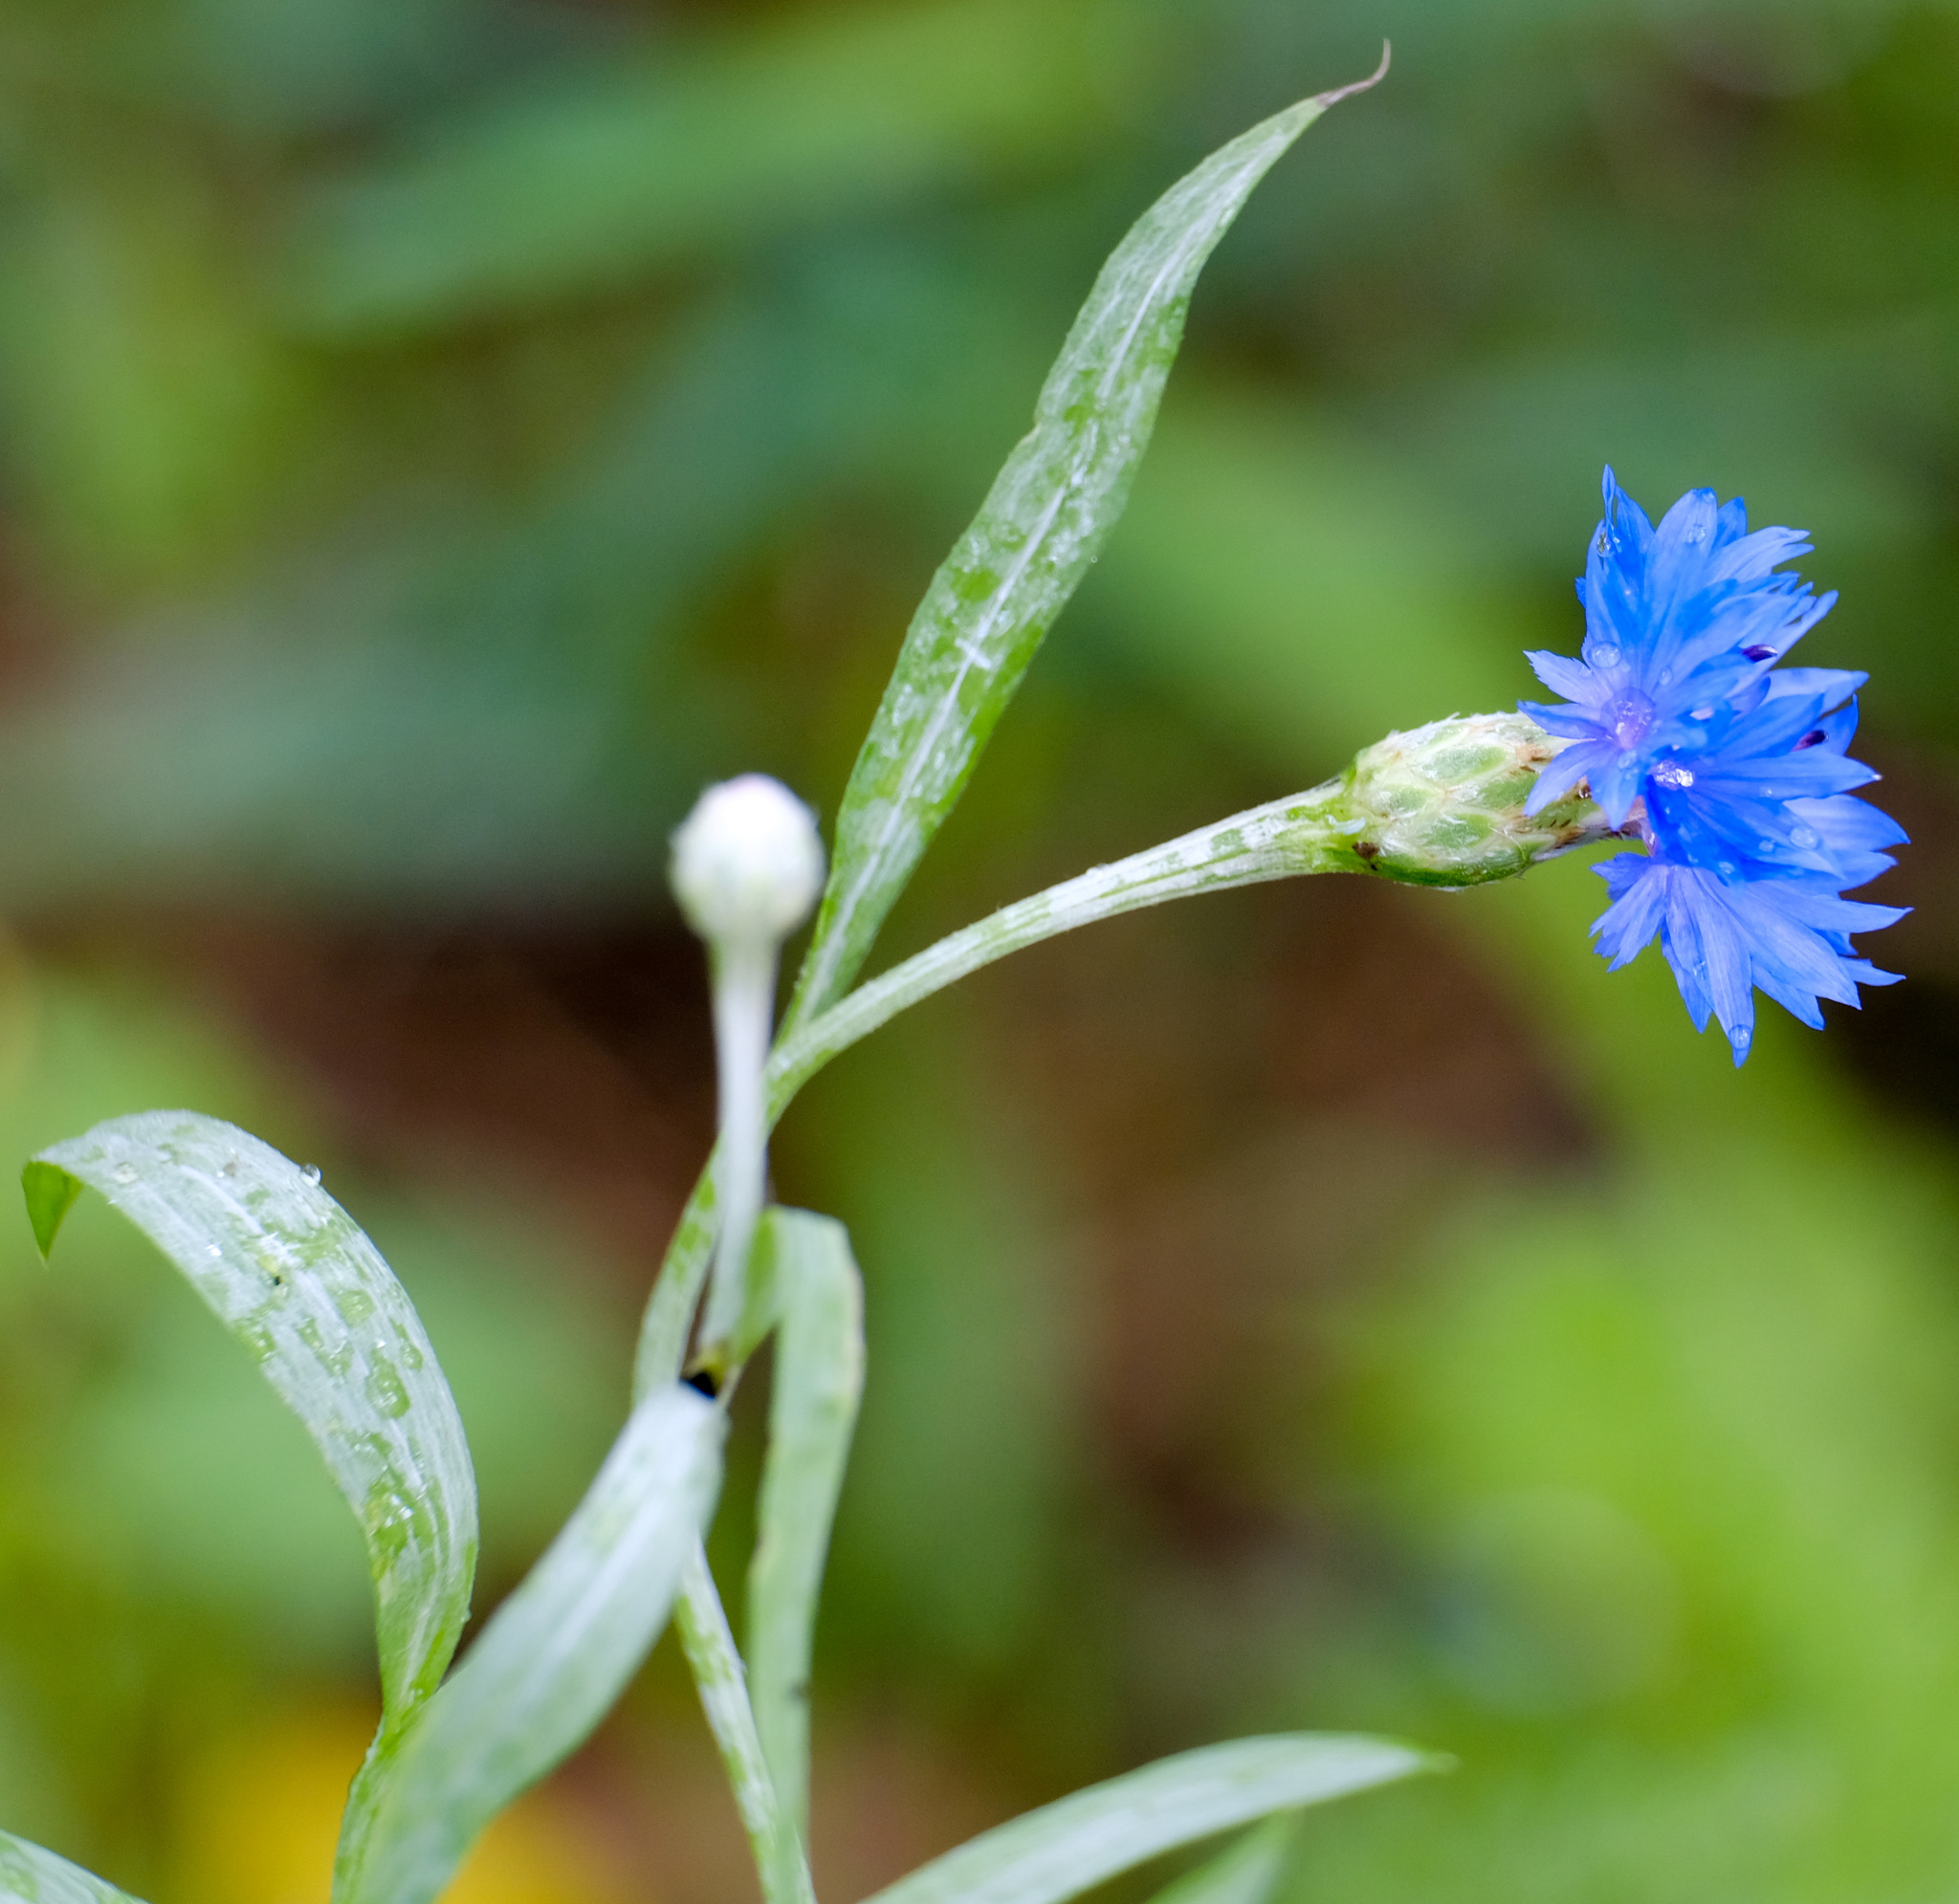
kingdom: Plantae
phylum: Tracheophyta
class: Magnoliopsida
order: Asterales
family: Asteraceae
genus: Centaurea
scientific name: Centaurea cyanus
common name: Cornflower
